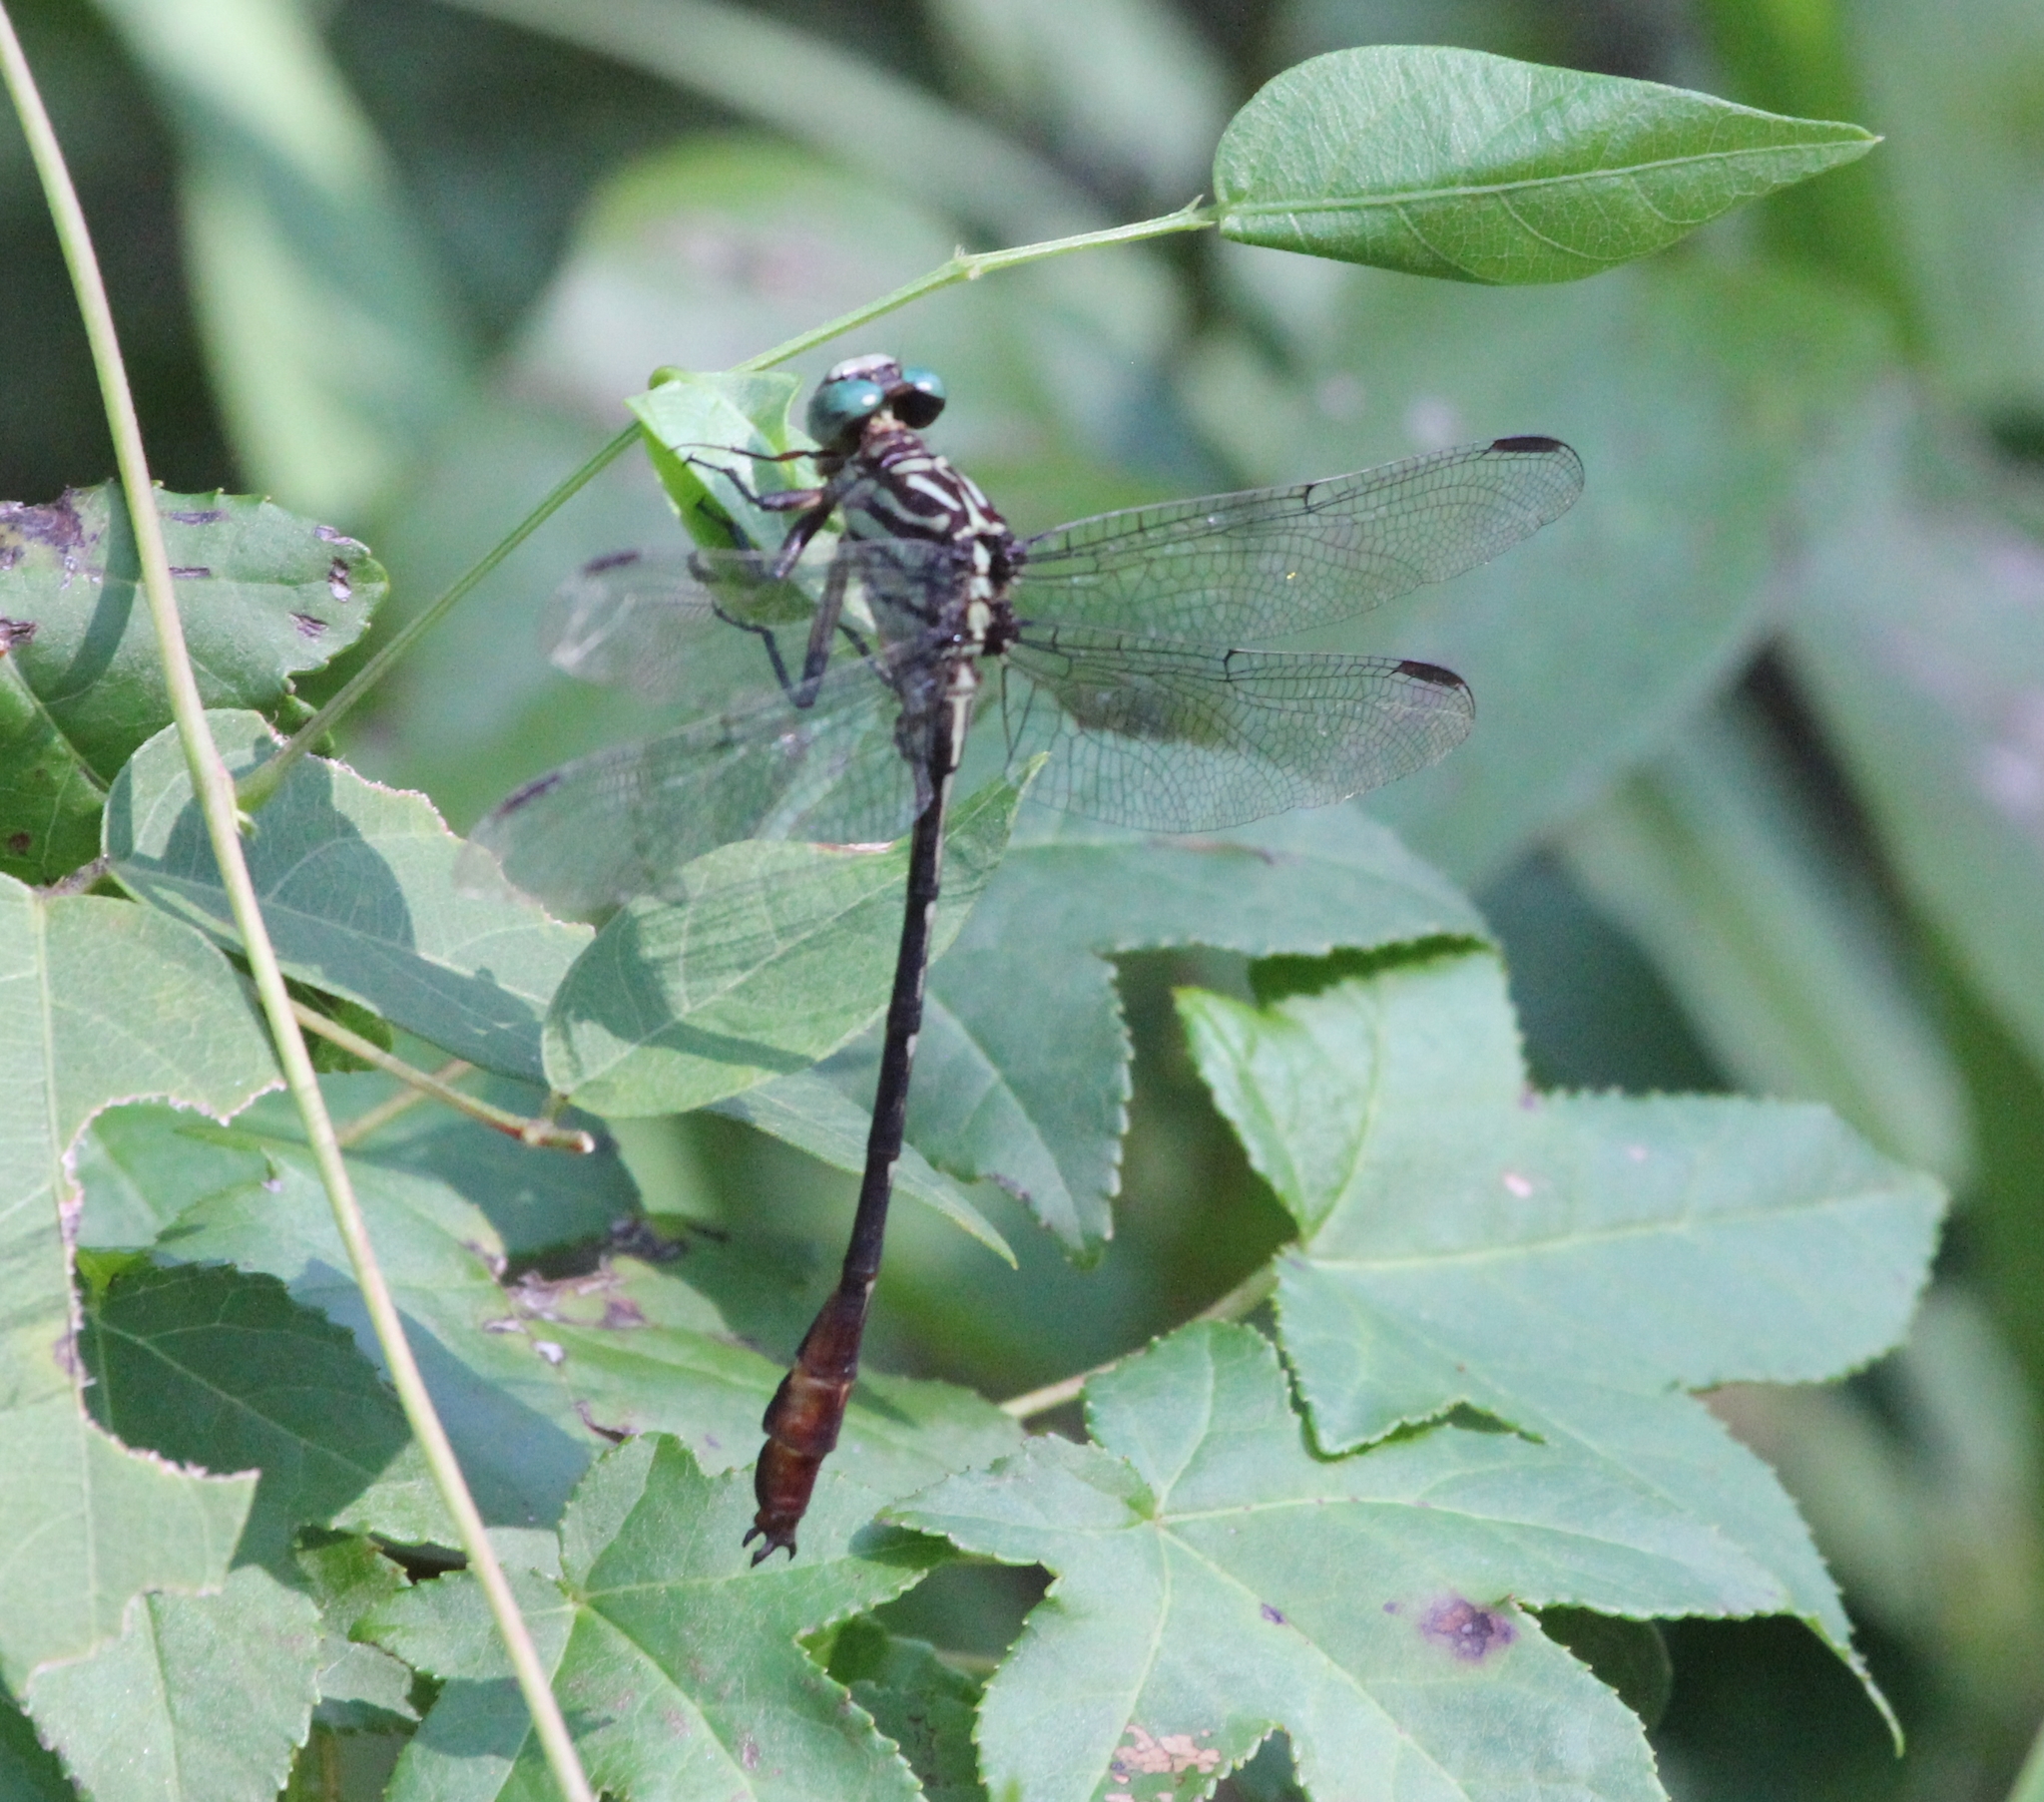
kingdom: Animalia
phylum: Arthropoda
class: Insecta
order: Odonata
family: Gomphidae
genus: Stylurus
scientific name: Stylurus plagiatus
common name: Russet-tipped clubtail
